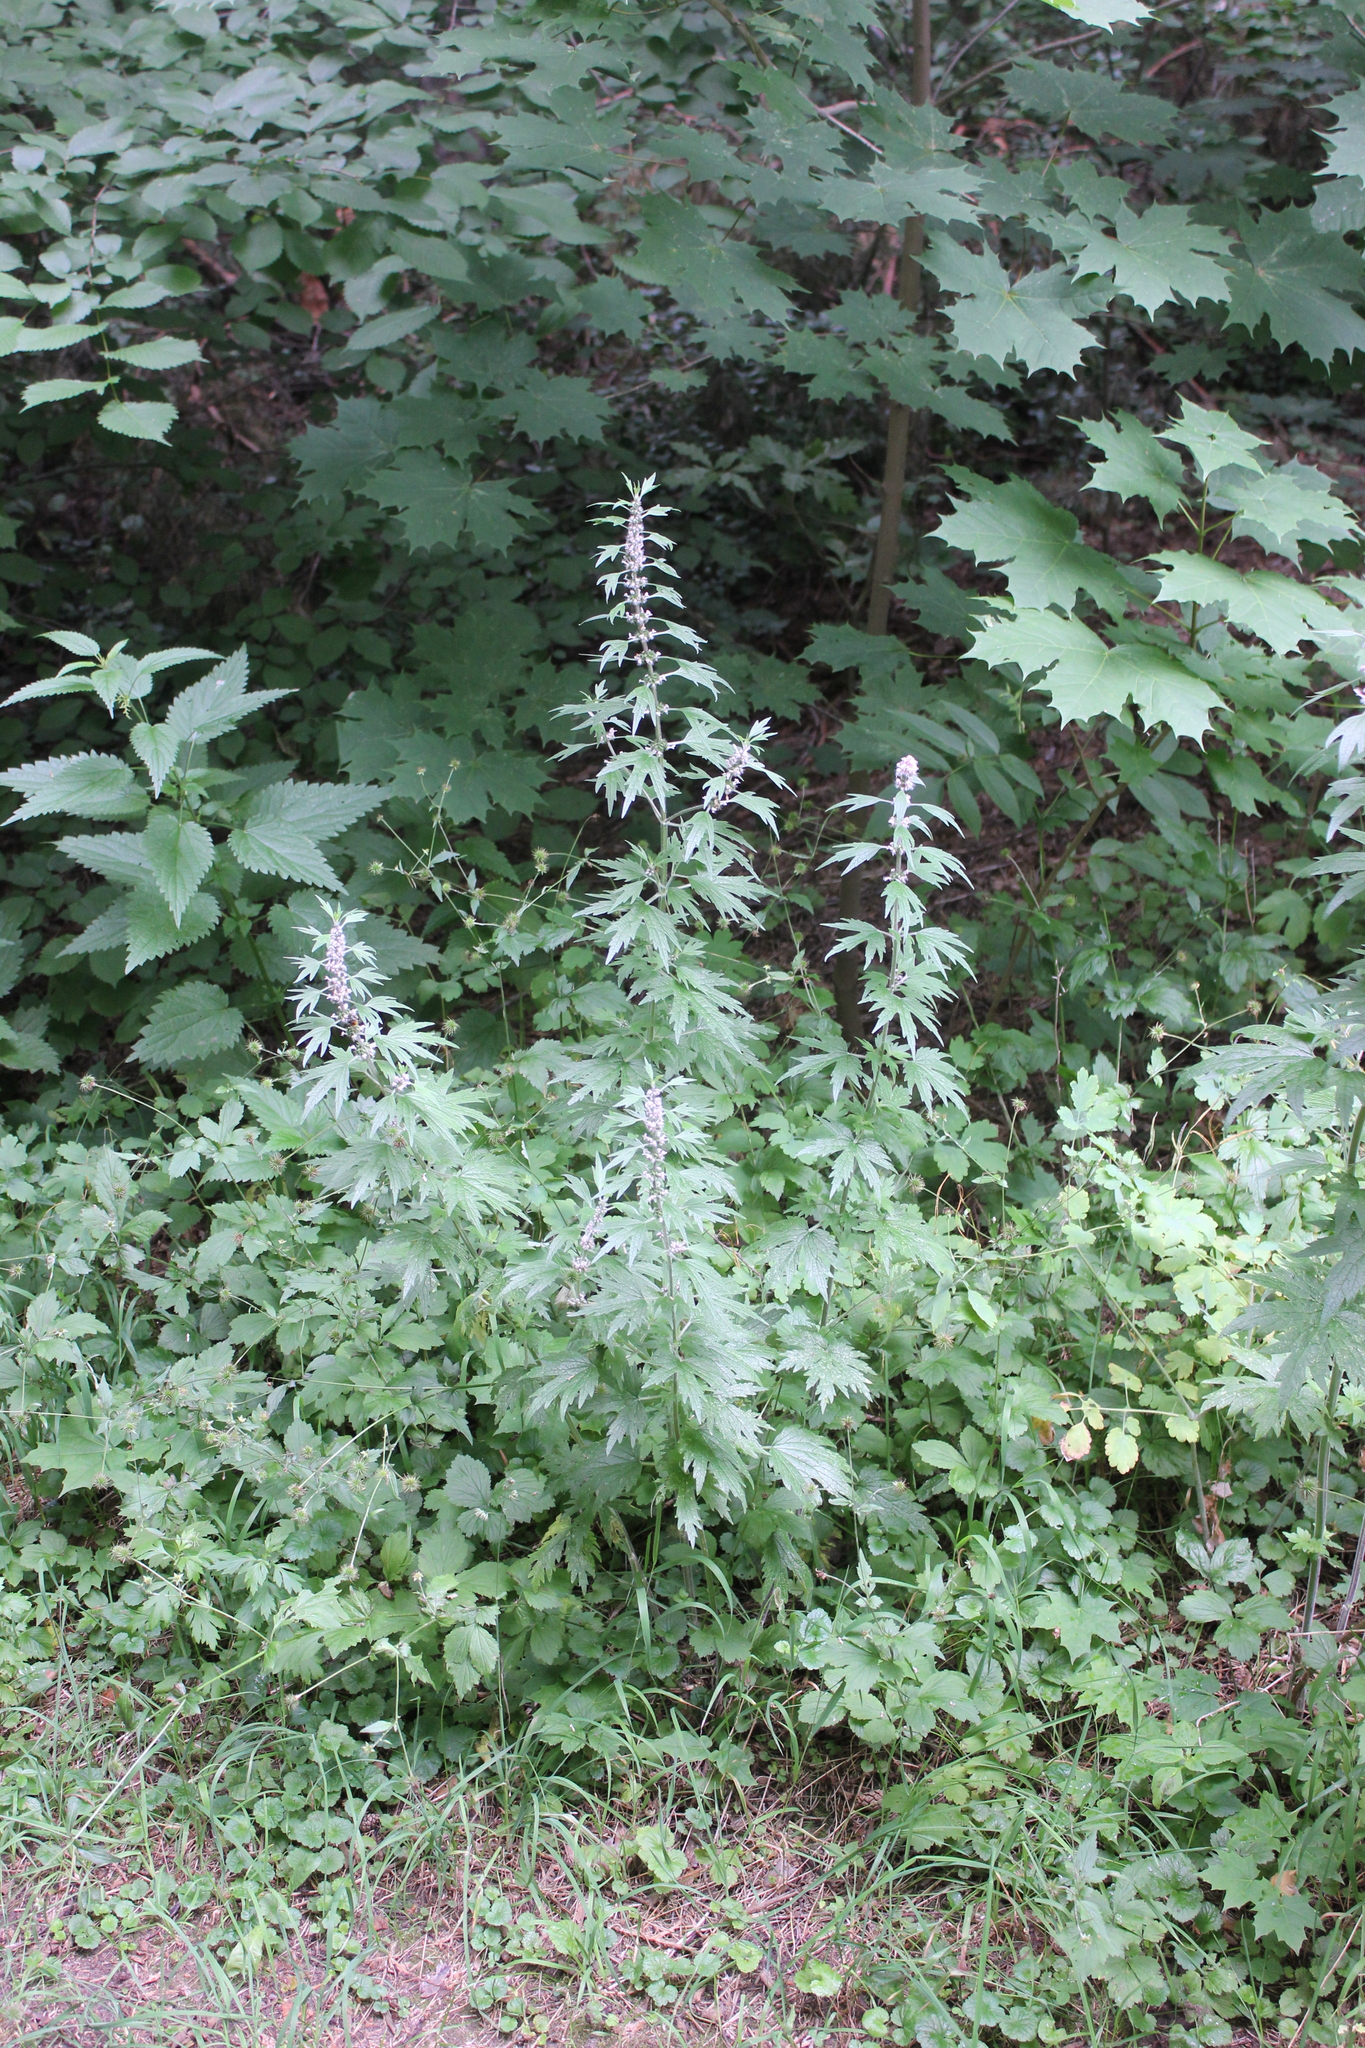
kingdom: Plantae
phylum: Tracheophyta
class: Magnoliopsida
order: Lamiales
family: Lamiaceae
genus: Leonurus
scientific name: Leonurus quinquelobatus
